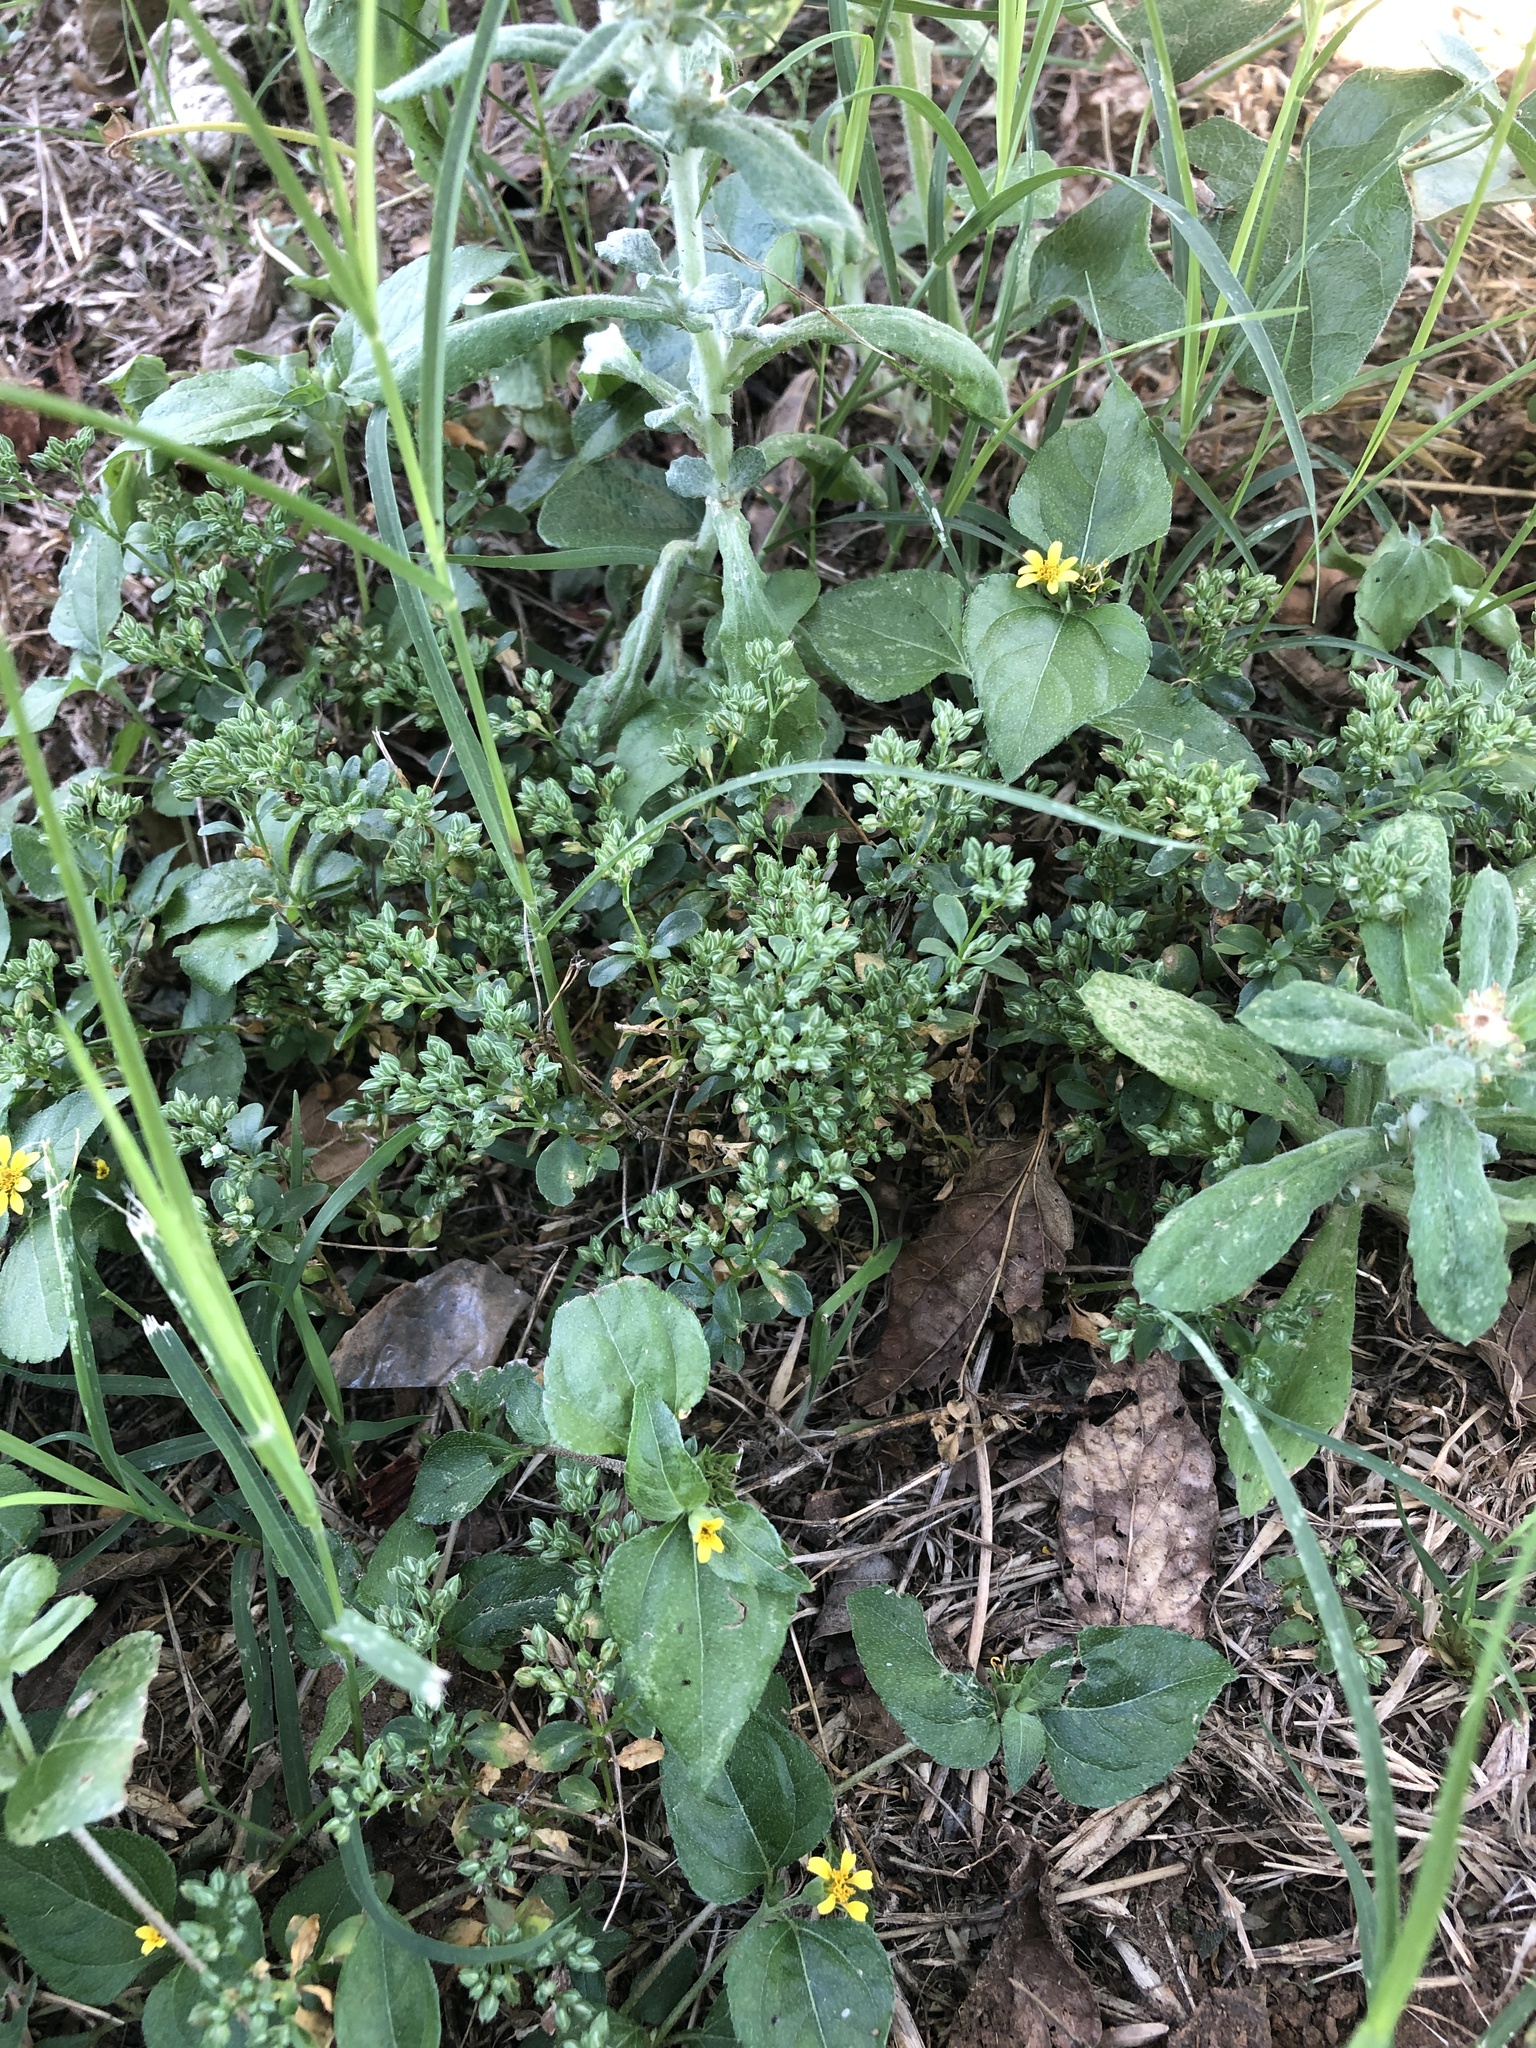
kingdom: Plantae
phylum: Tracheophyta
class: Magnoliopsida
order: Caryophyllales
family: Caryophyllaceae
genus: Polycarpon
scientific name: Polycarpon tetraphyllum
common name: Four-leaved all-seed
